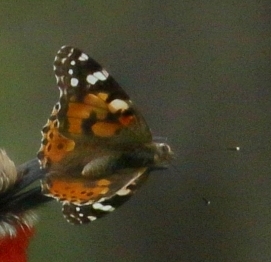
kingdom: Animalia
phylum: Arthropoda
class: Insecta
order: Lepidoptera
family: Nymphalidae
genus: Vanessa
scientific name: Vanessa cardui
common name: Painted lady
